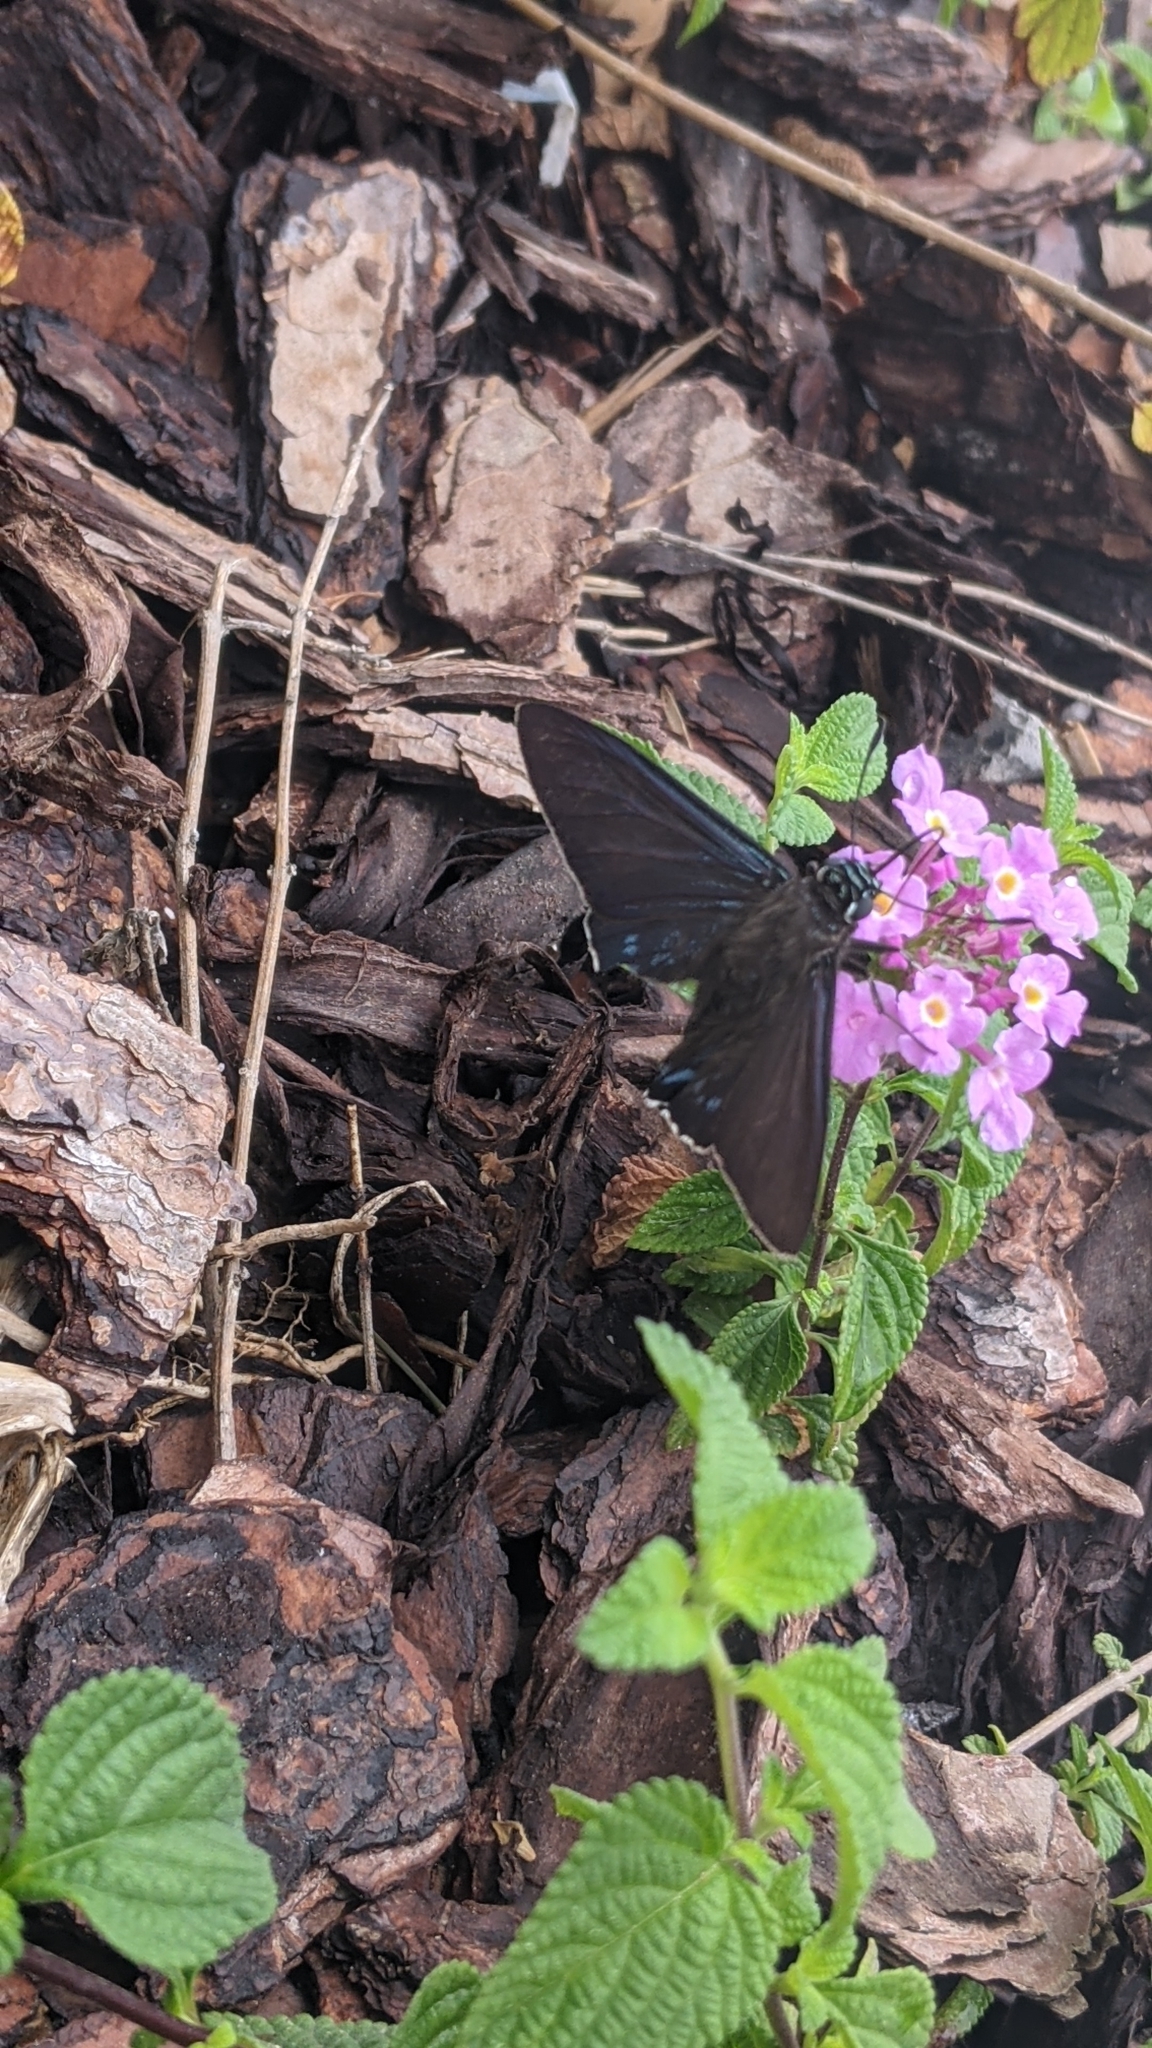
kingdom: Animalia
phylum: Arthropoda
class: Insecta
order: Lepidoptera
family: Hesperiidae
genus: Phocides
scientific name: Phocides pigmalion
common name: Mangrove skipper
